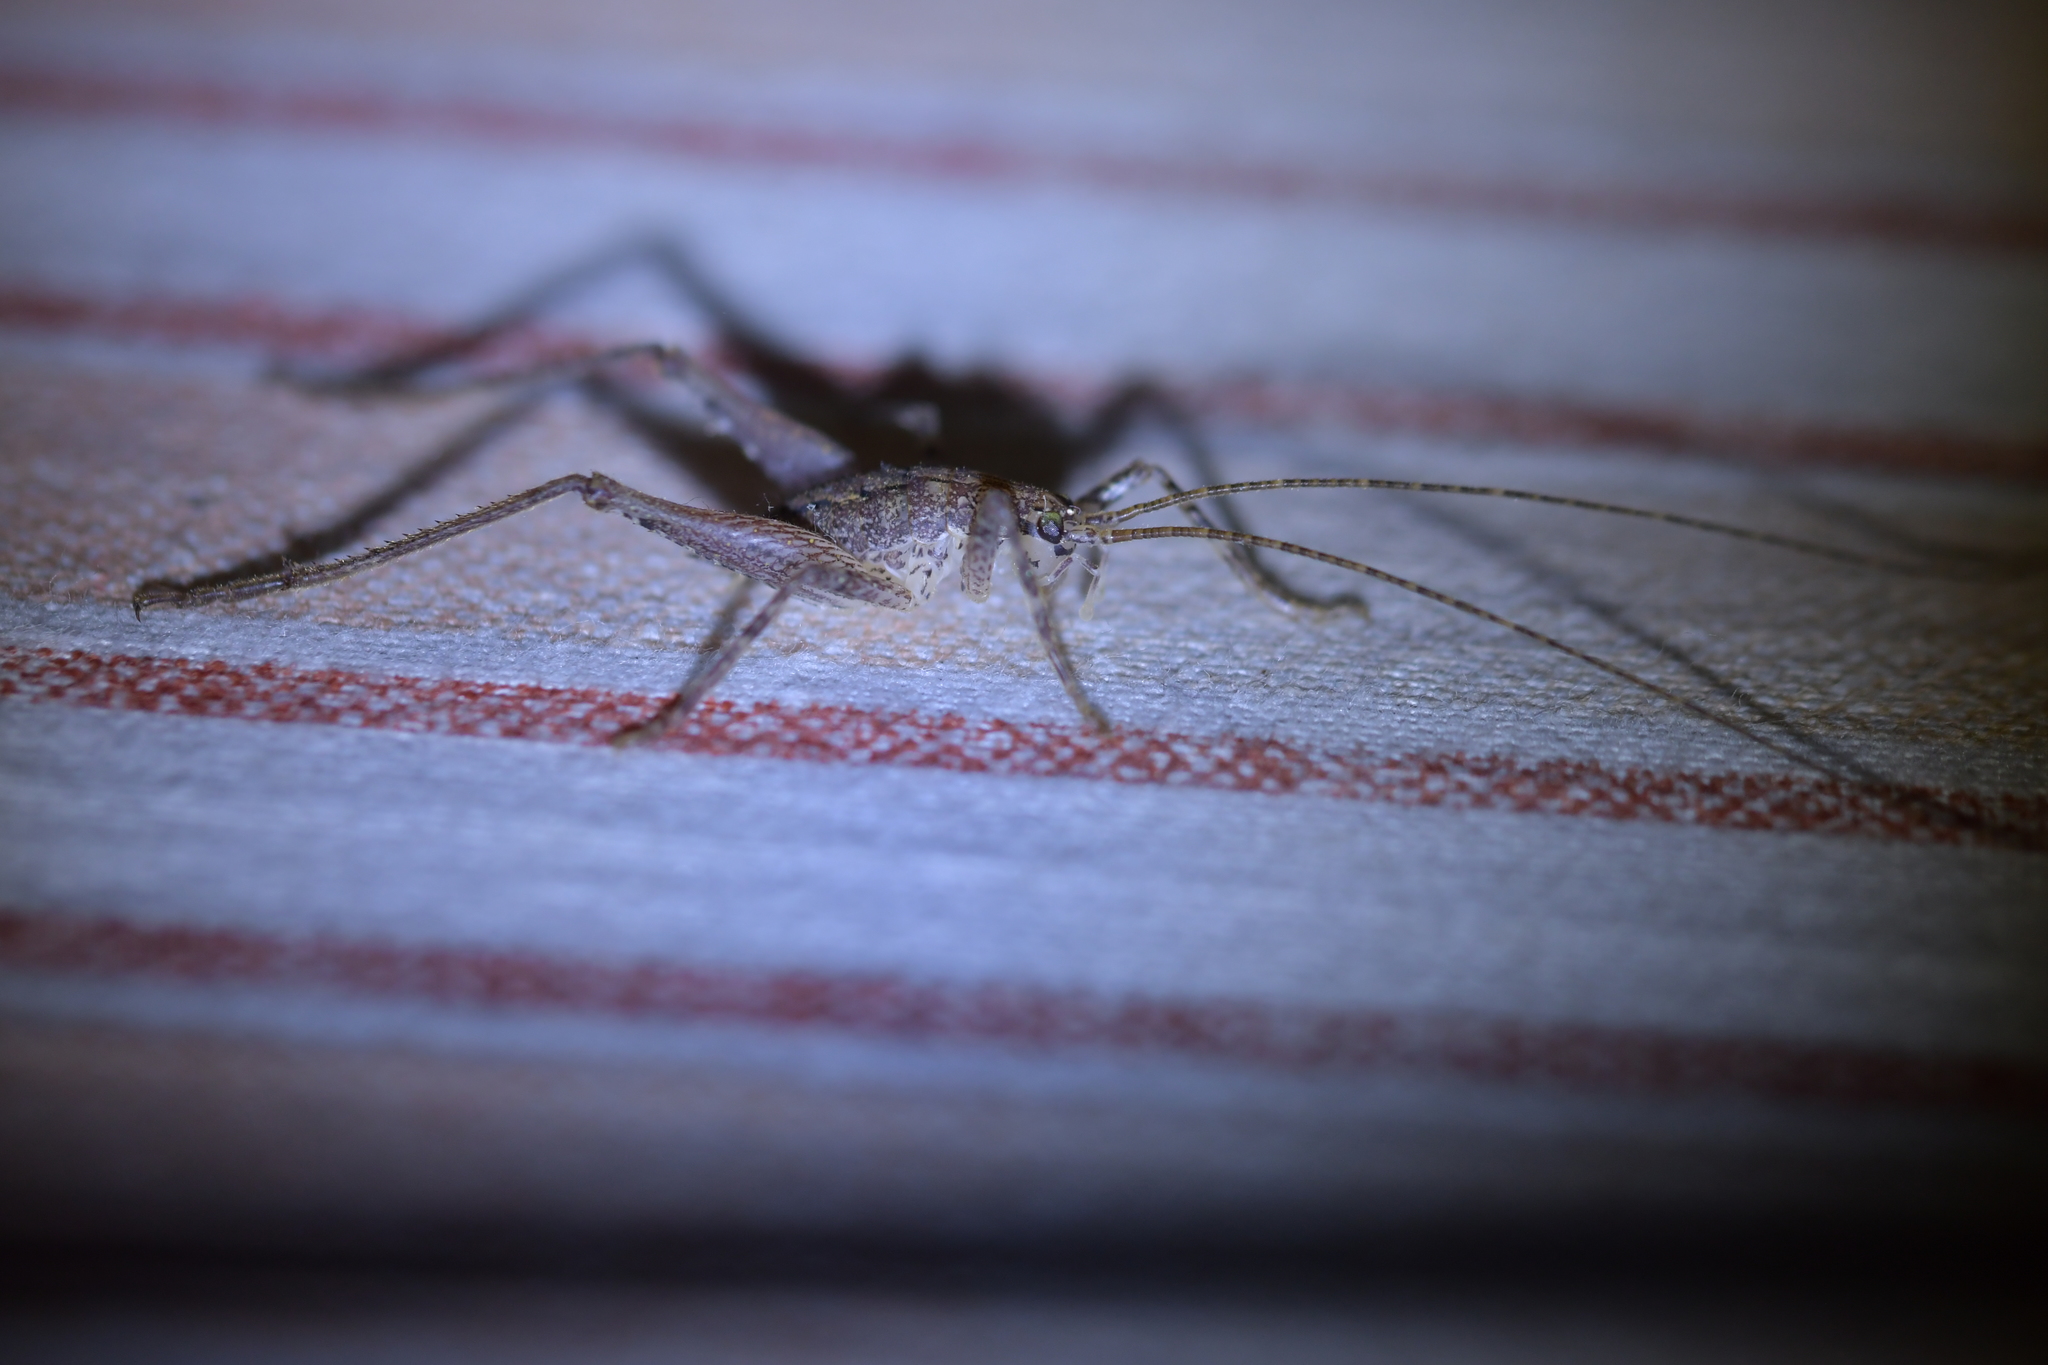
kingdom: Animalia
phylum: Arthropoda
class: Insecta
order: Orthoptera
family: Rhaphidophoridae
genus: Isoplectron
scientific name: Isoplectron armatum
